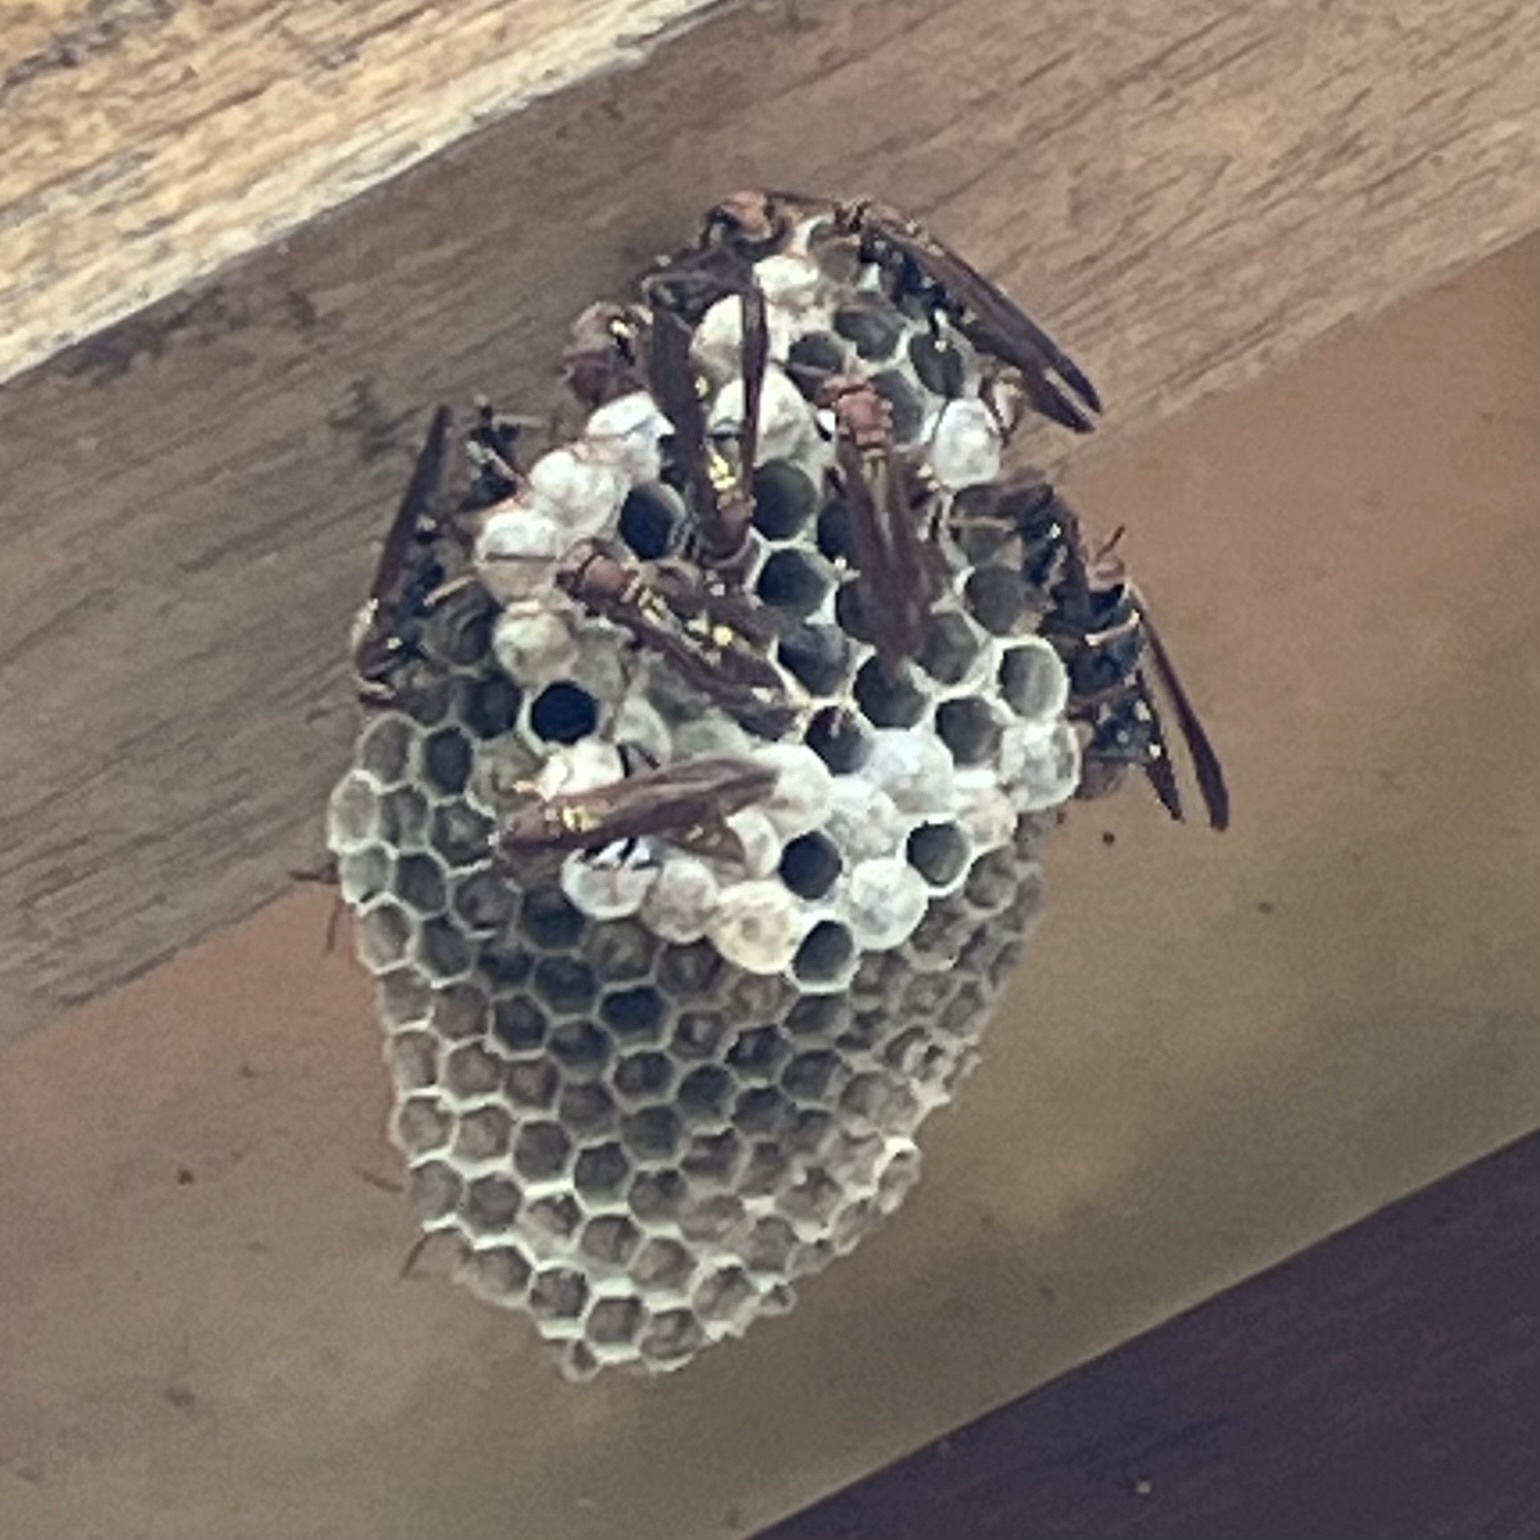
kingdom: Animalia
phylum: Arthropoda
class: Insecta
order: Hymenoptera
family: Eumenidae
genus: Polistes
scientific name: Polistes versicolor
